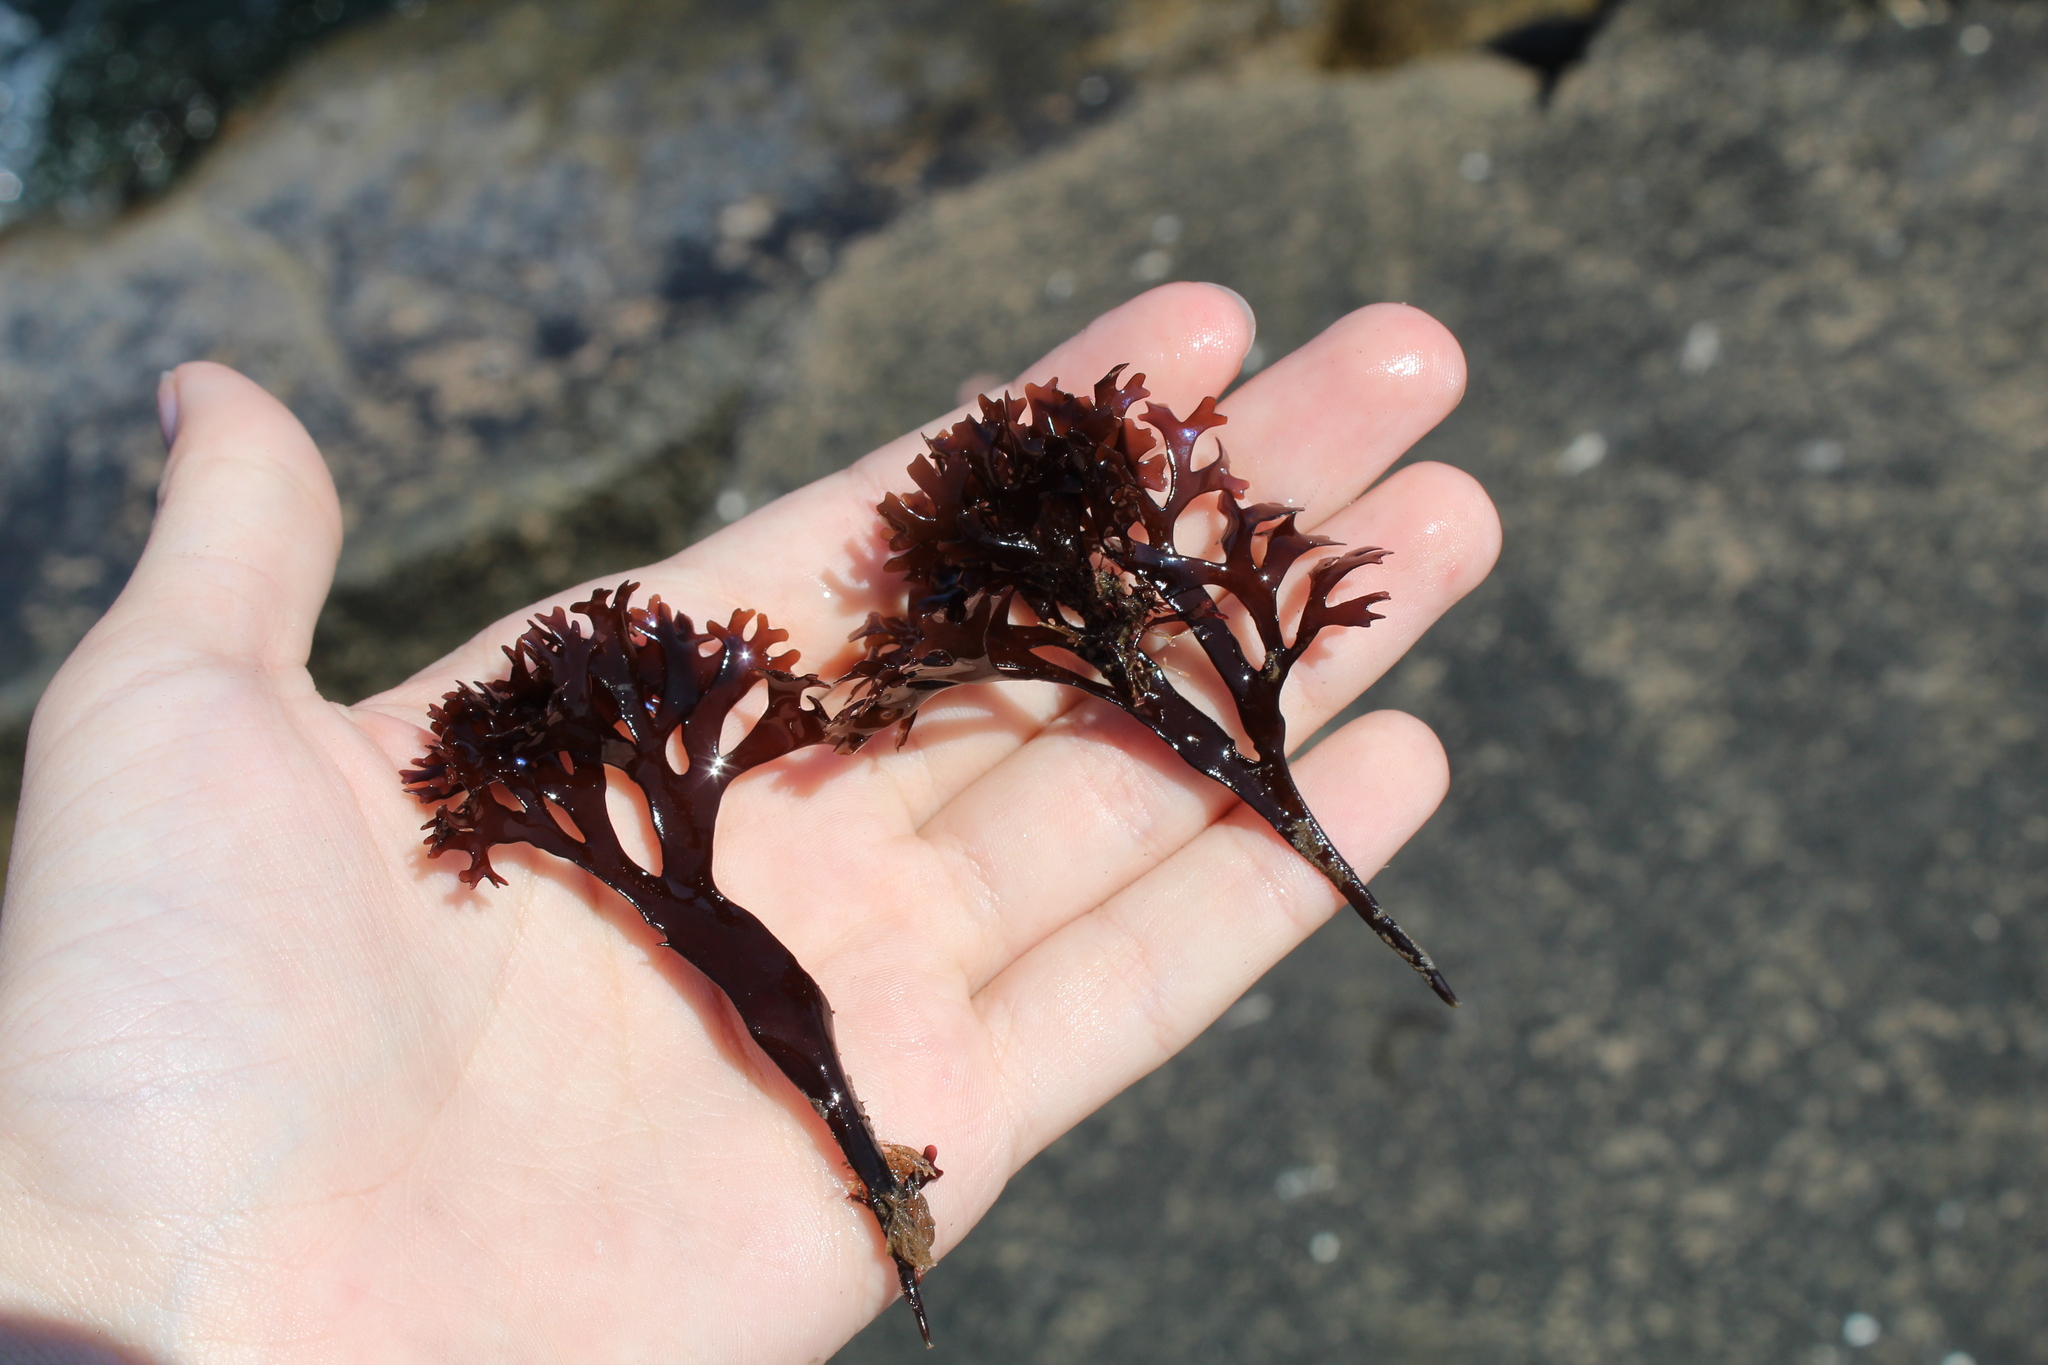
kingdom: Plantae
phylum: Rhodophyta
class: Florideophyceae
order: Gigartinales
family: Gigartinaceae
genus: Chondrus
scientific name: Chondrus crispus
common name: Carrageen
